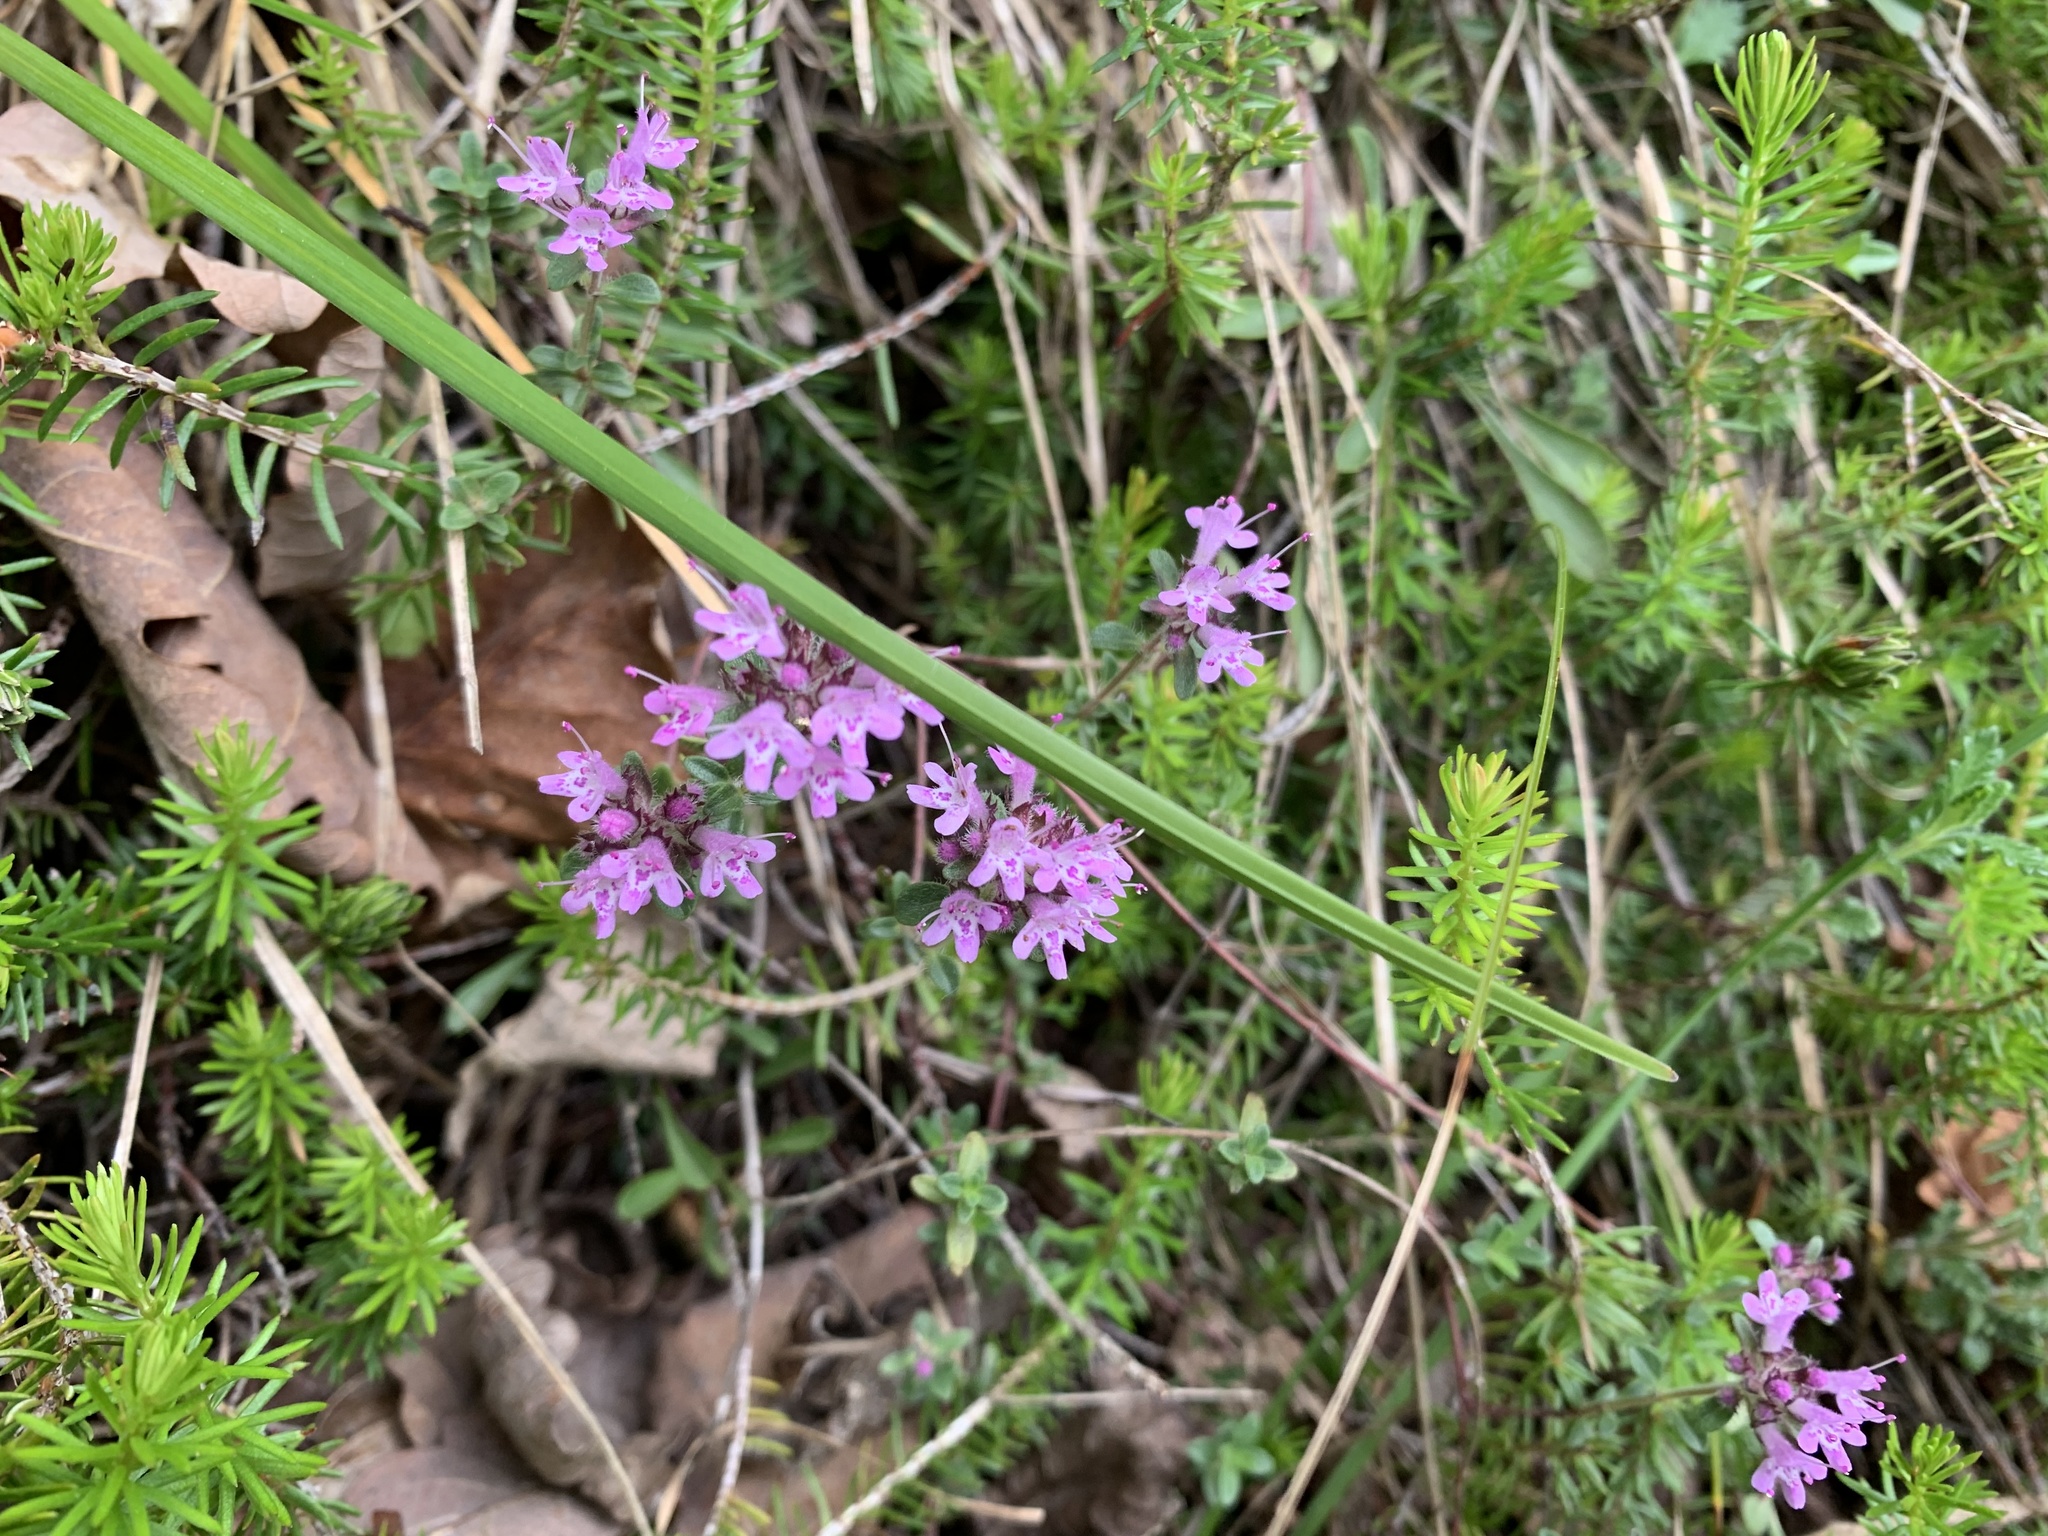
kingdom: Plantae
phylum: Tracheophyta
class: Magnoliopsida
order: Lamiales
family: Lamiaceae
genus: Thymus
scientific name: Thymus praecox
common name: Wild thyme
